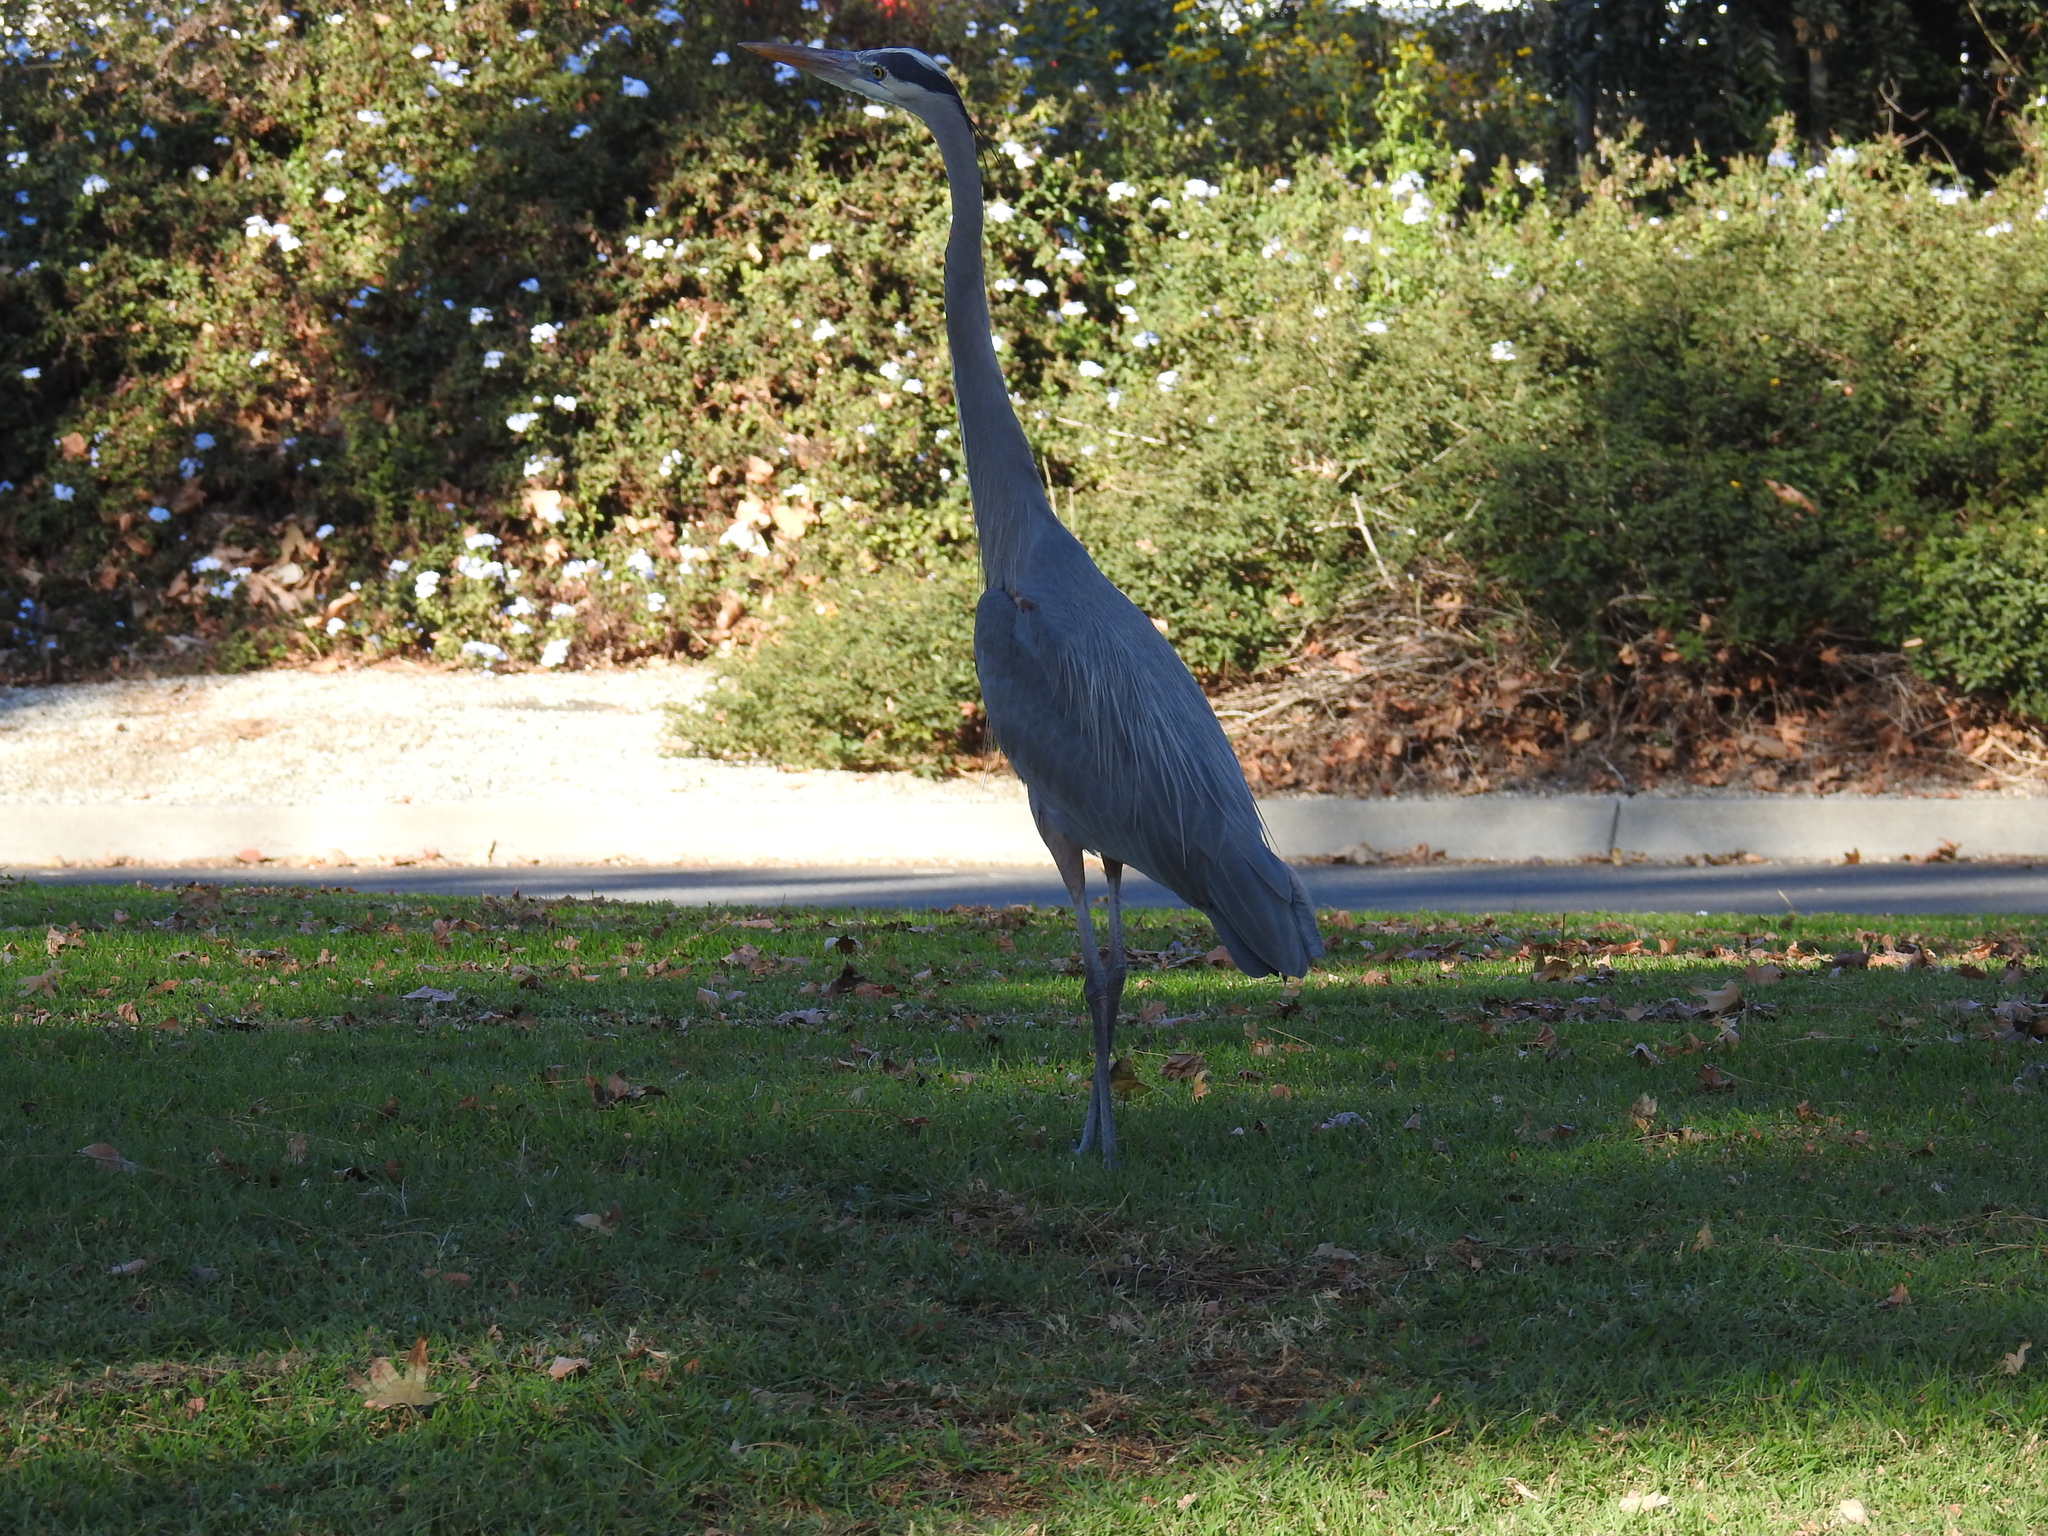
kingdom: Animalia
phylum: Chordata
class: Aves
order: Pelecaniformes
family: Ardeidae
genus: Ardea
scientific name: Ardea herodias
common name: Great blue heron
